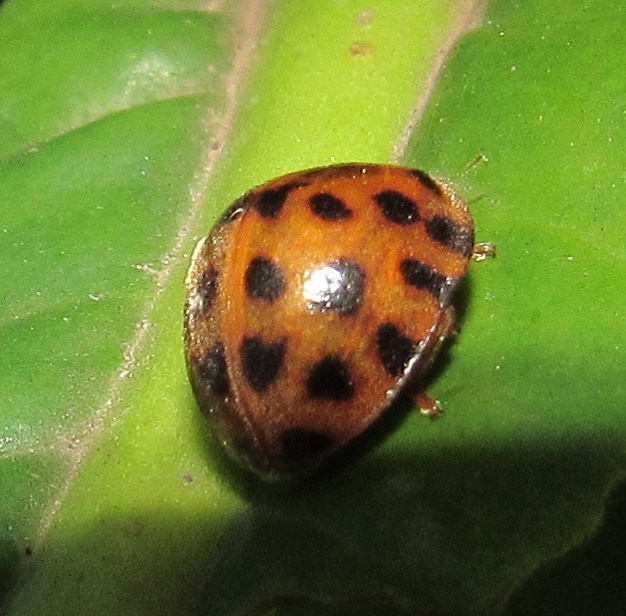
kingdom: Animalia
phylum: Arthropoda
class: Insecta
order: Coleoptera
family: Coccinellidae
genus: Henosepilachna
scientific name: Henosepilachna vigintioctopunctata
